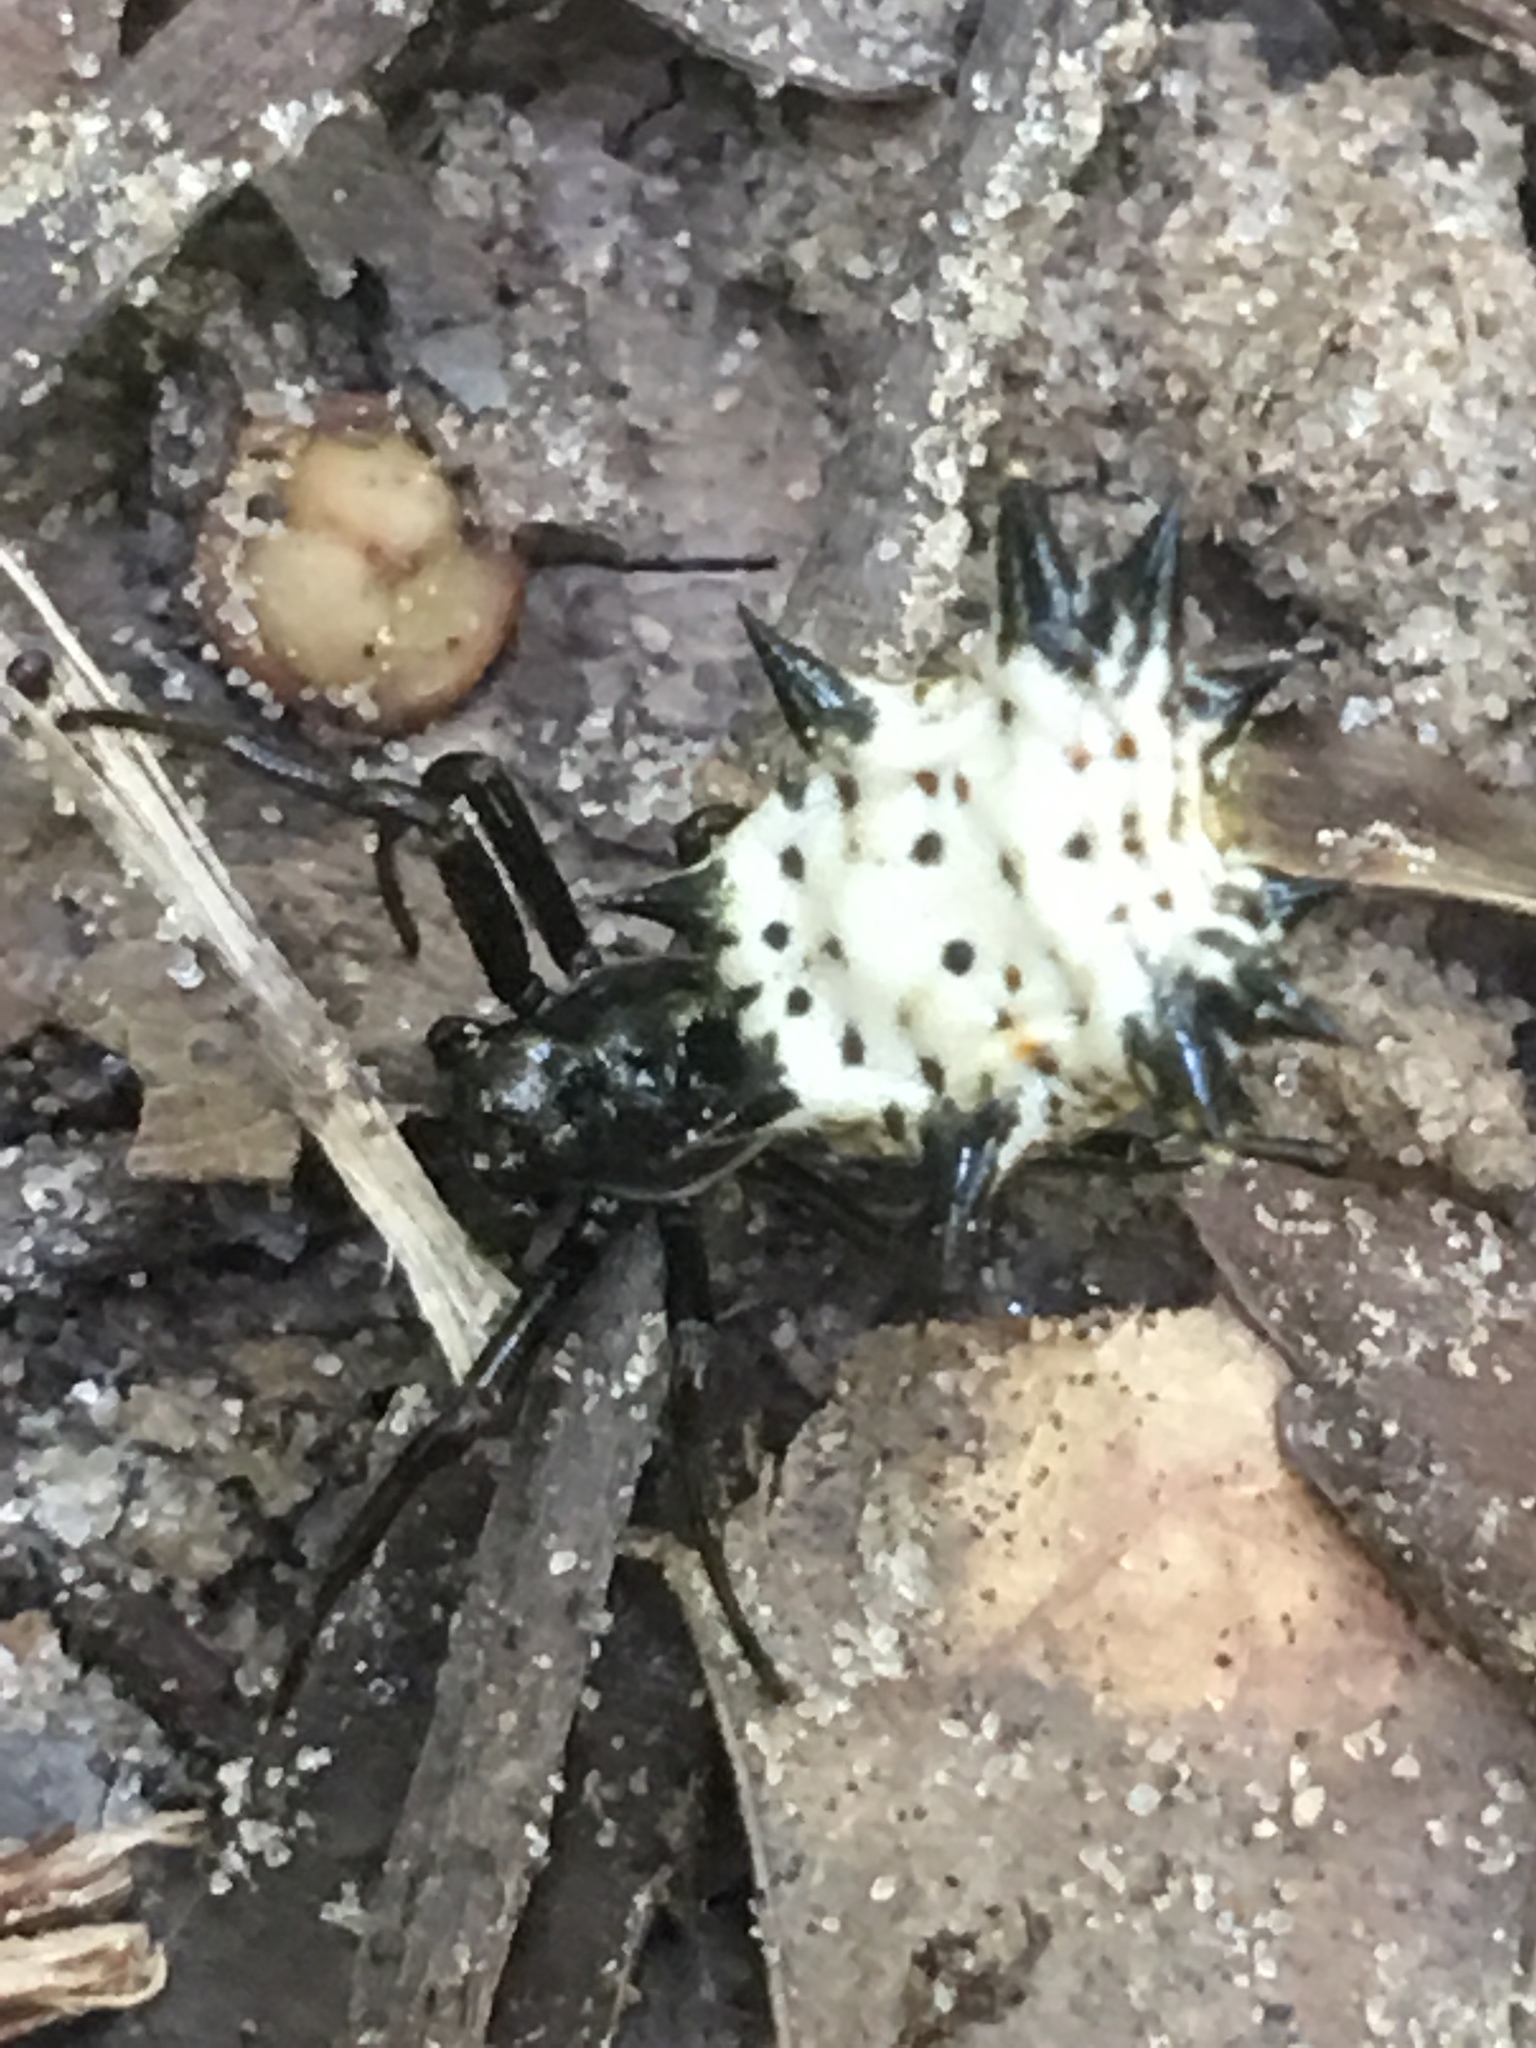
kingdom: Animalia
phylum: Arthropoda
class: Arachnida
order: Araneae
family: Araneidae
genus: Micrathena
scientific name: Micrathena gracilis
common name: Orb weavers
